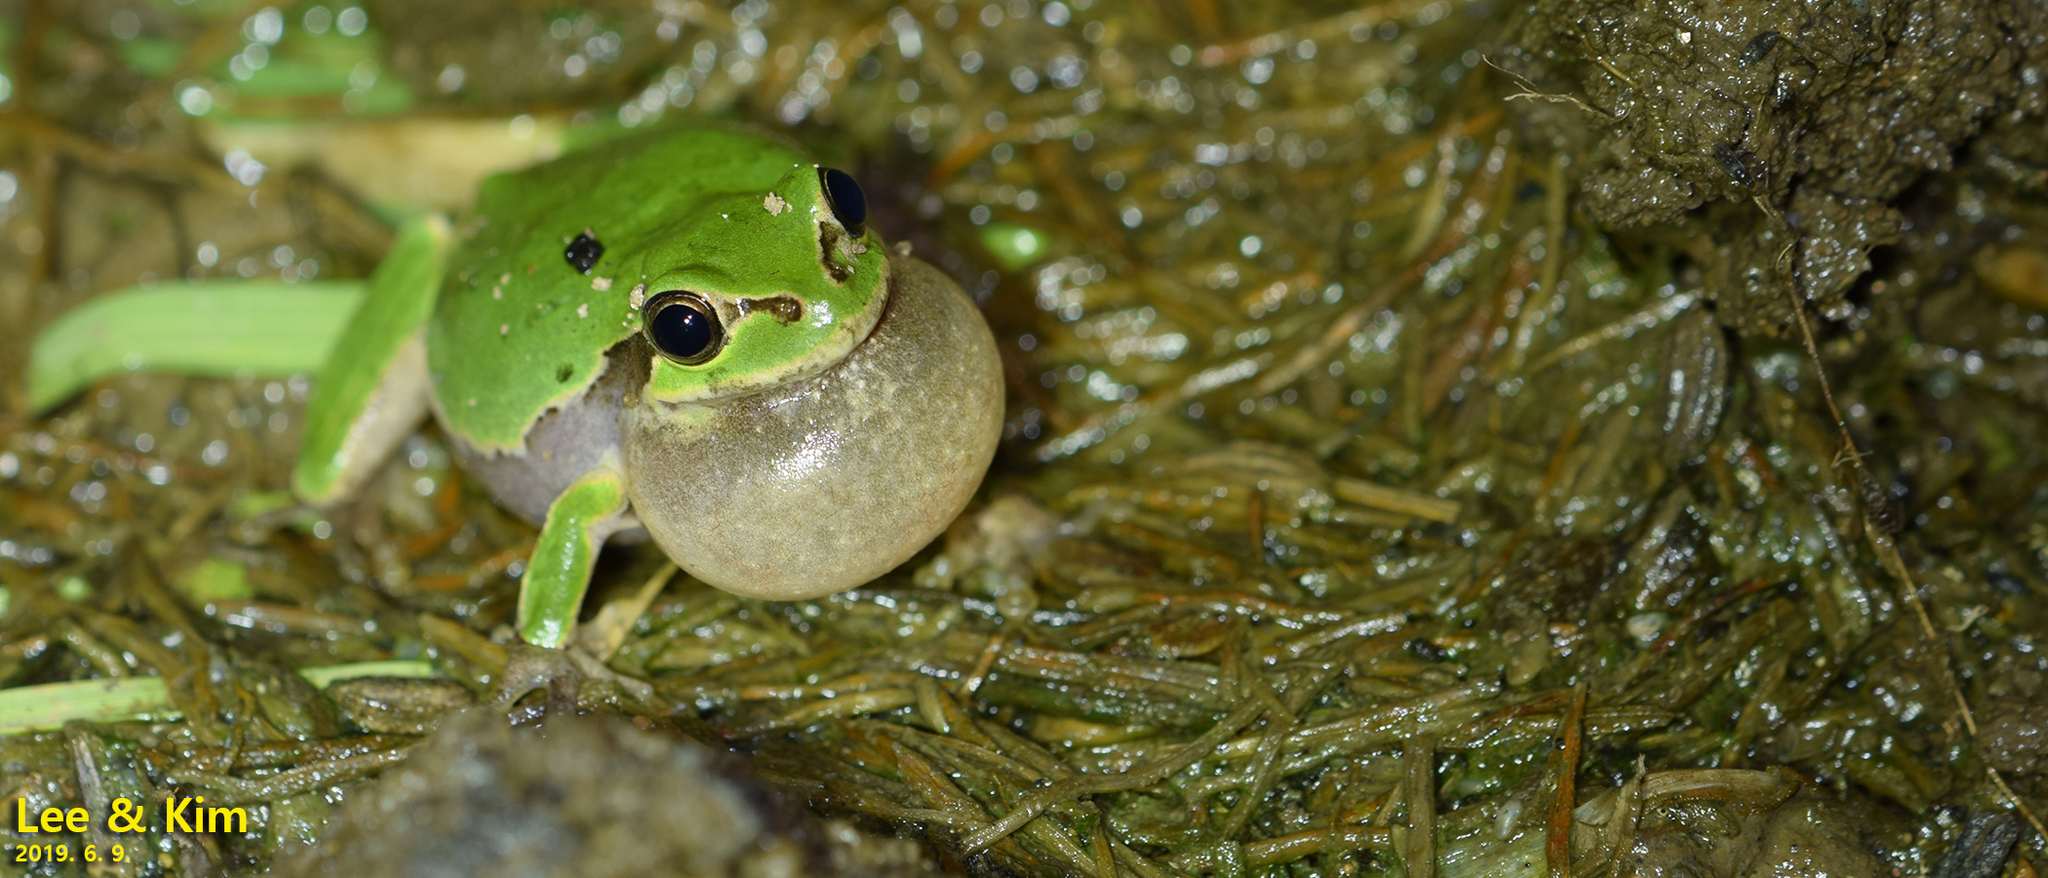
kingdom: Animalia
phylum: Chordata
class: Amphibia
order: Anura
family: Hylidae
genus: Dryophytes
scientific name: Dryophytes japonicus
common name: Japanese treefrog
